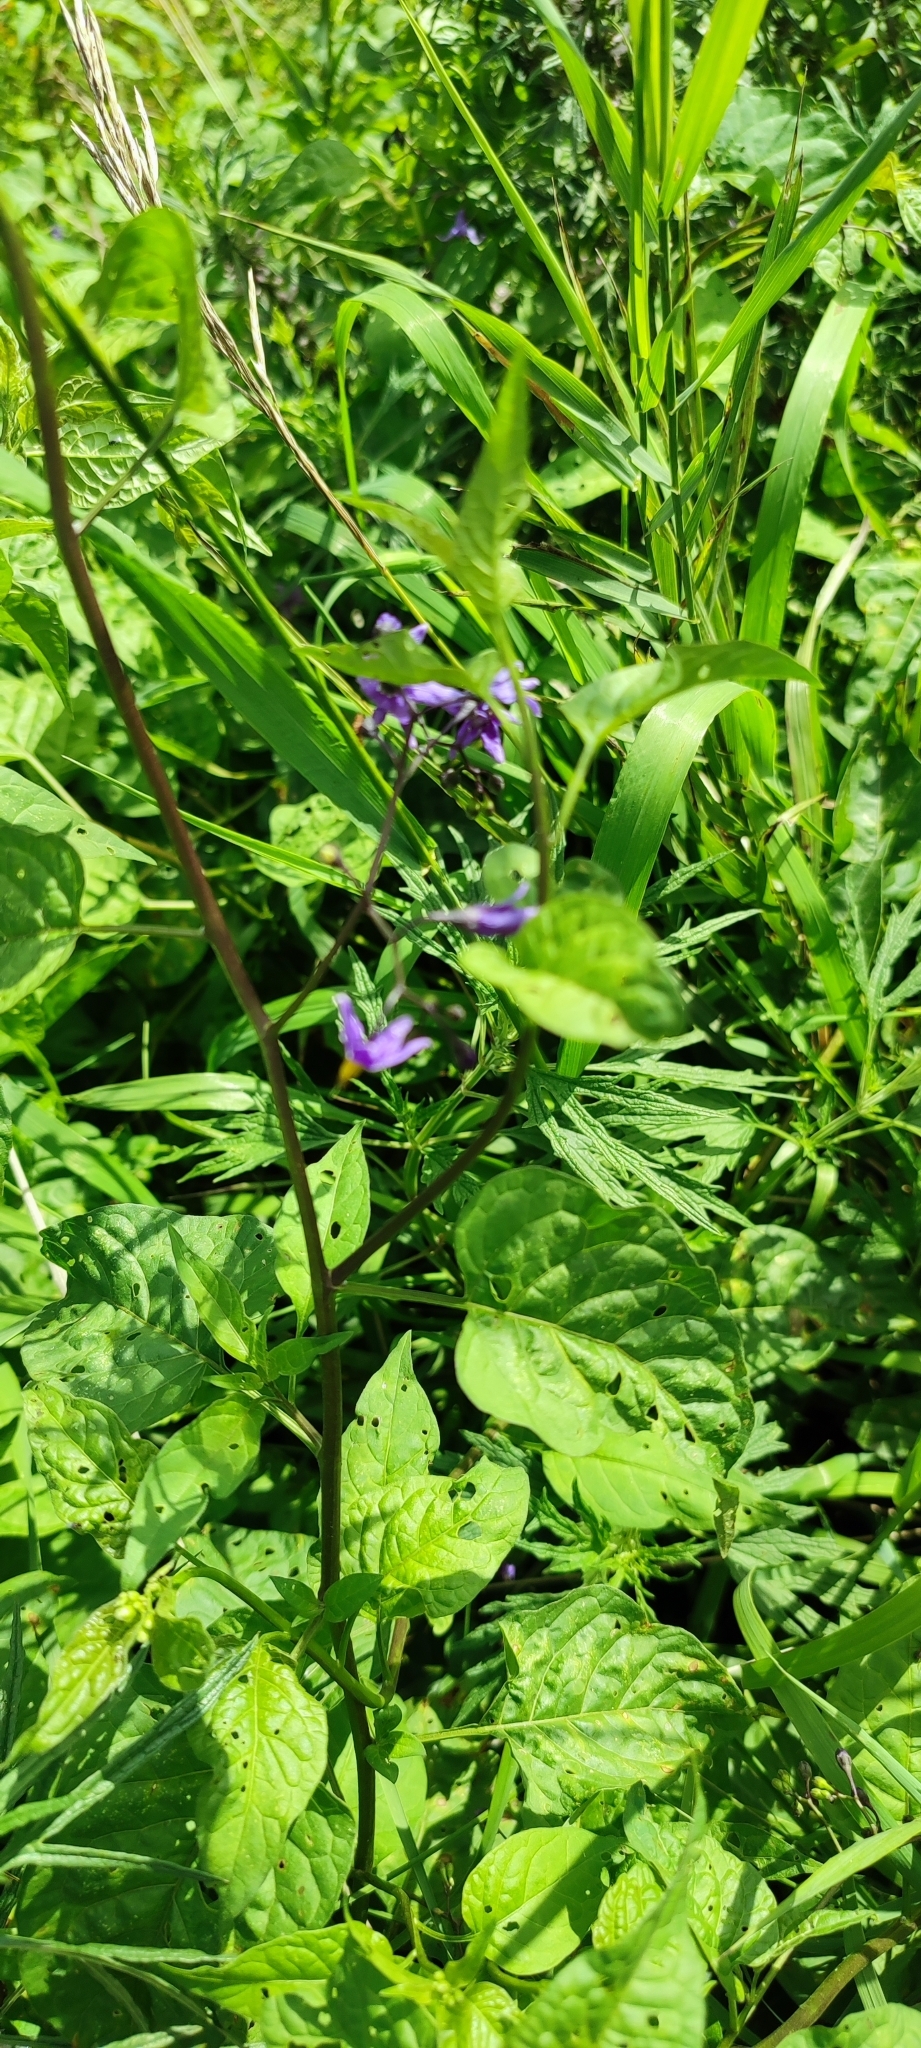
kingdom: Plantae
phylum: Tracheophyta
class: Magnoliopsida
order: Solanales
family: Solanaceae
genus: Solanum
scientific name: Solanum dulcamara
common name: Climbing nightshade
